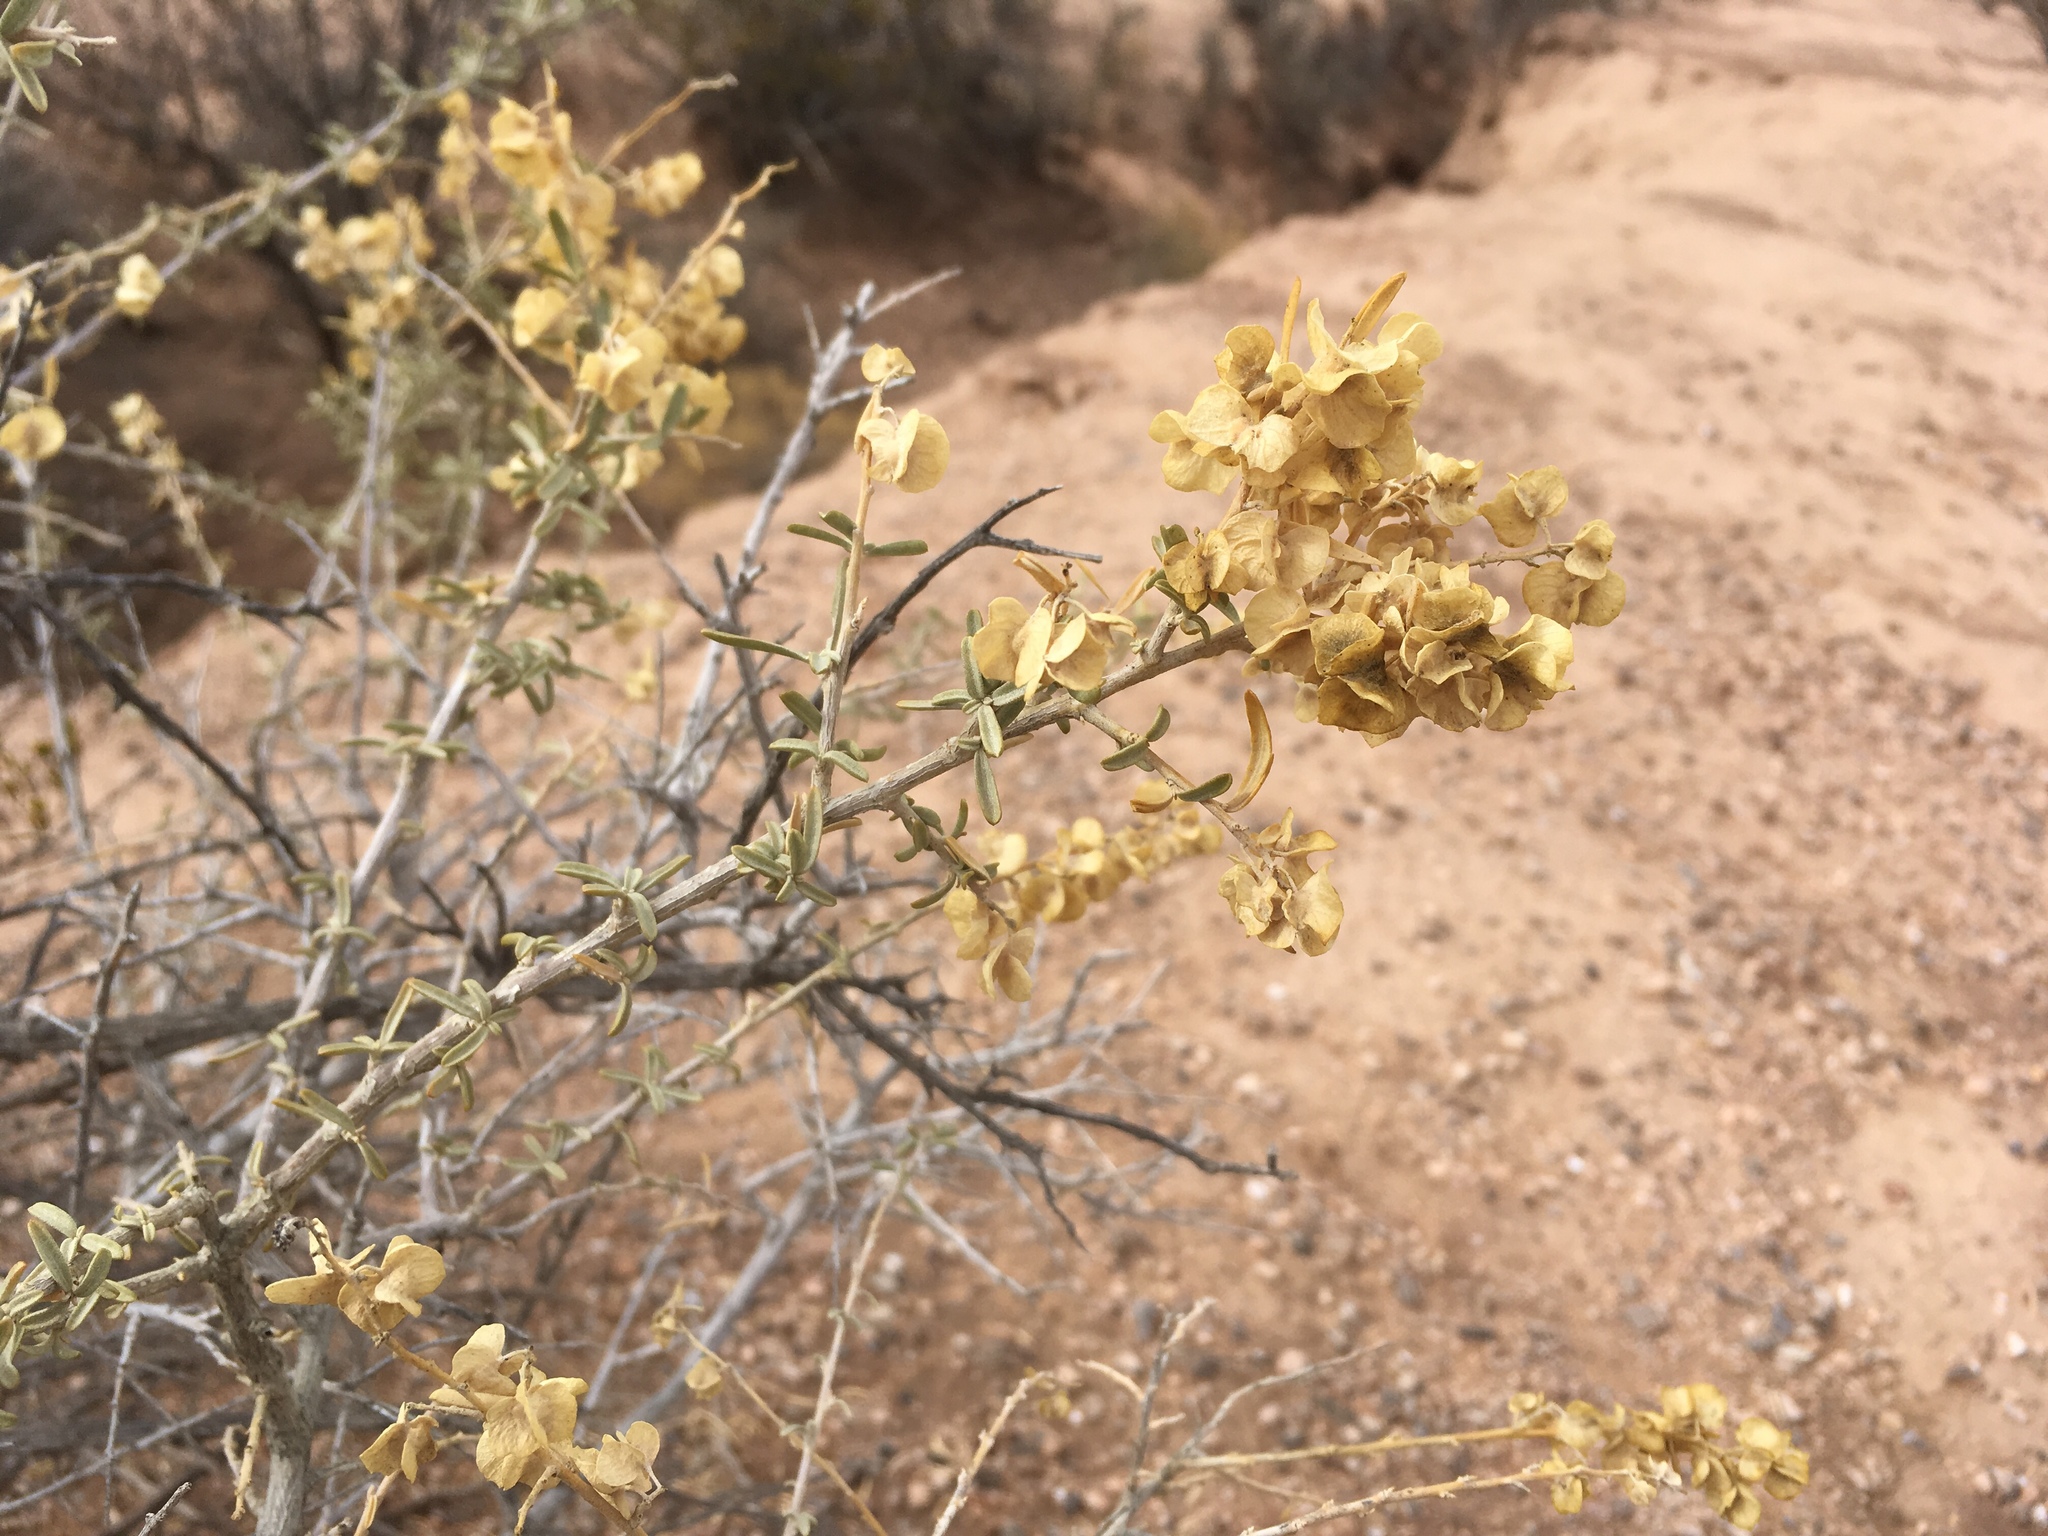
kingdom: Plantae
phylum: Tracheophyta
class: Magnoliopsida
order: Caryophyllales
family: Amaranthaceae
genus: Atriplex
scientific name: Atriplex canescens
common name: Four-wing saltbush
